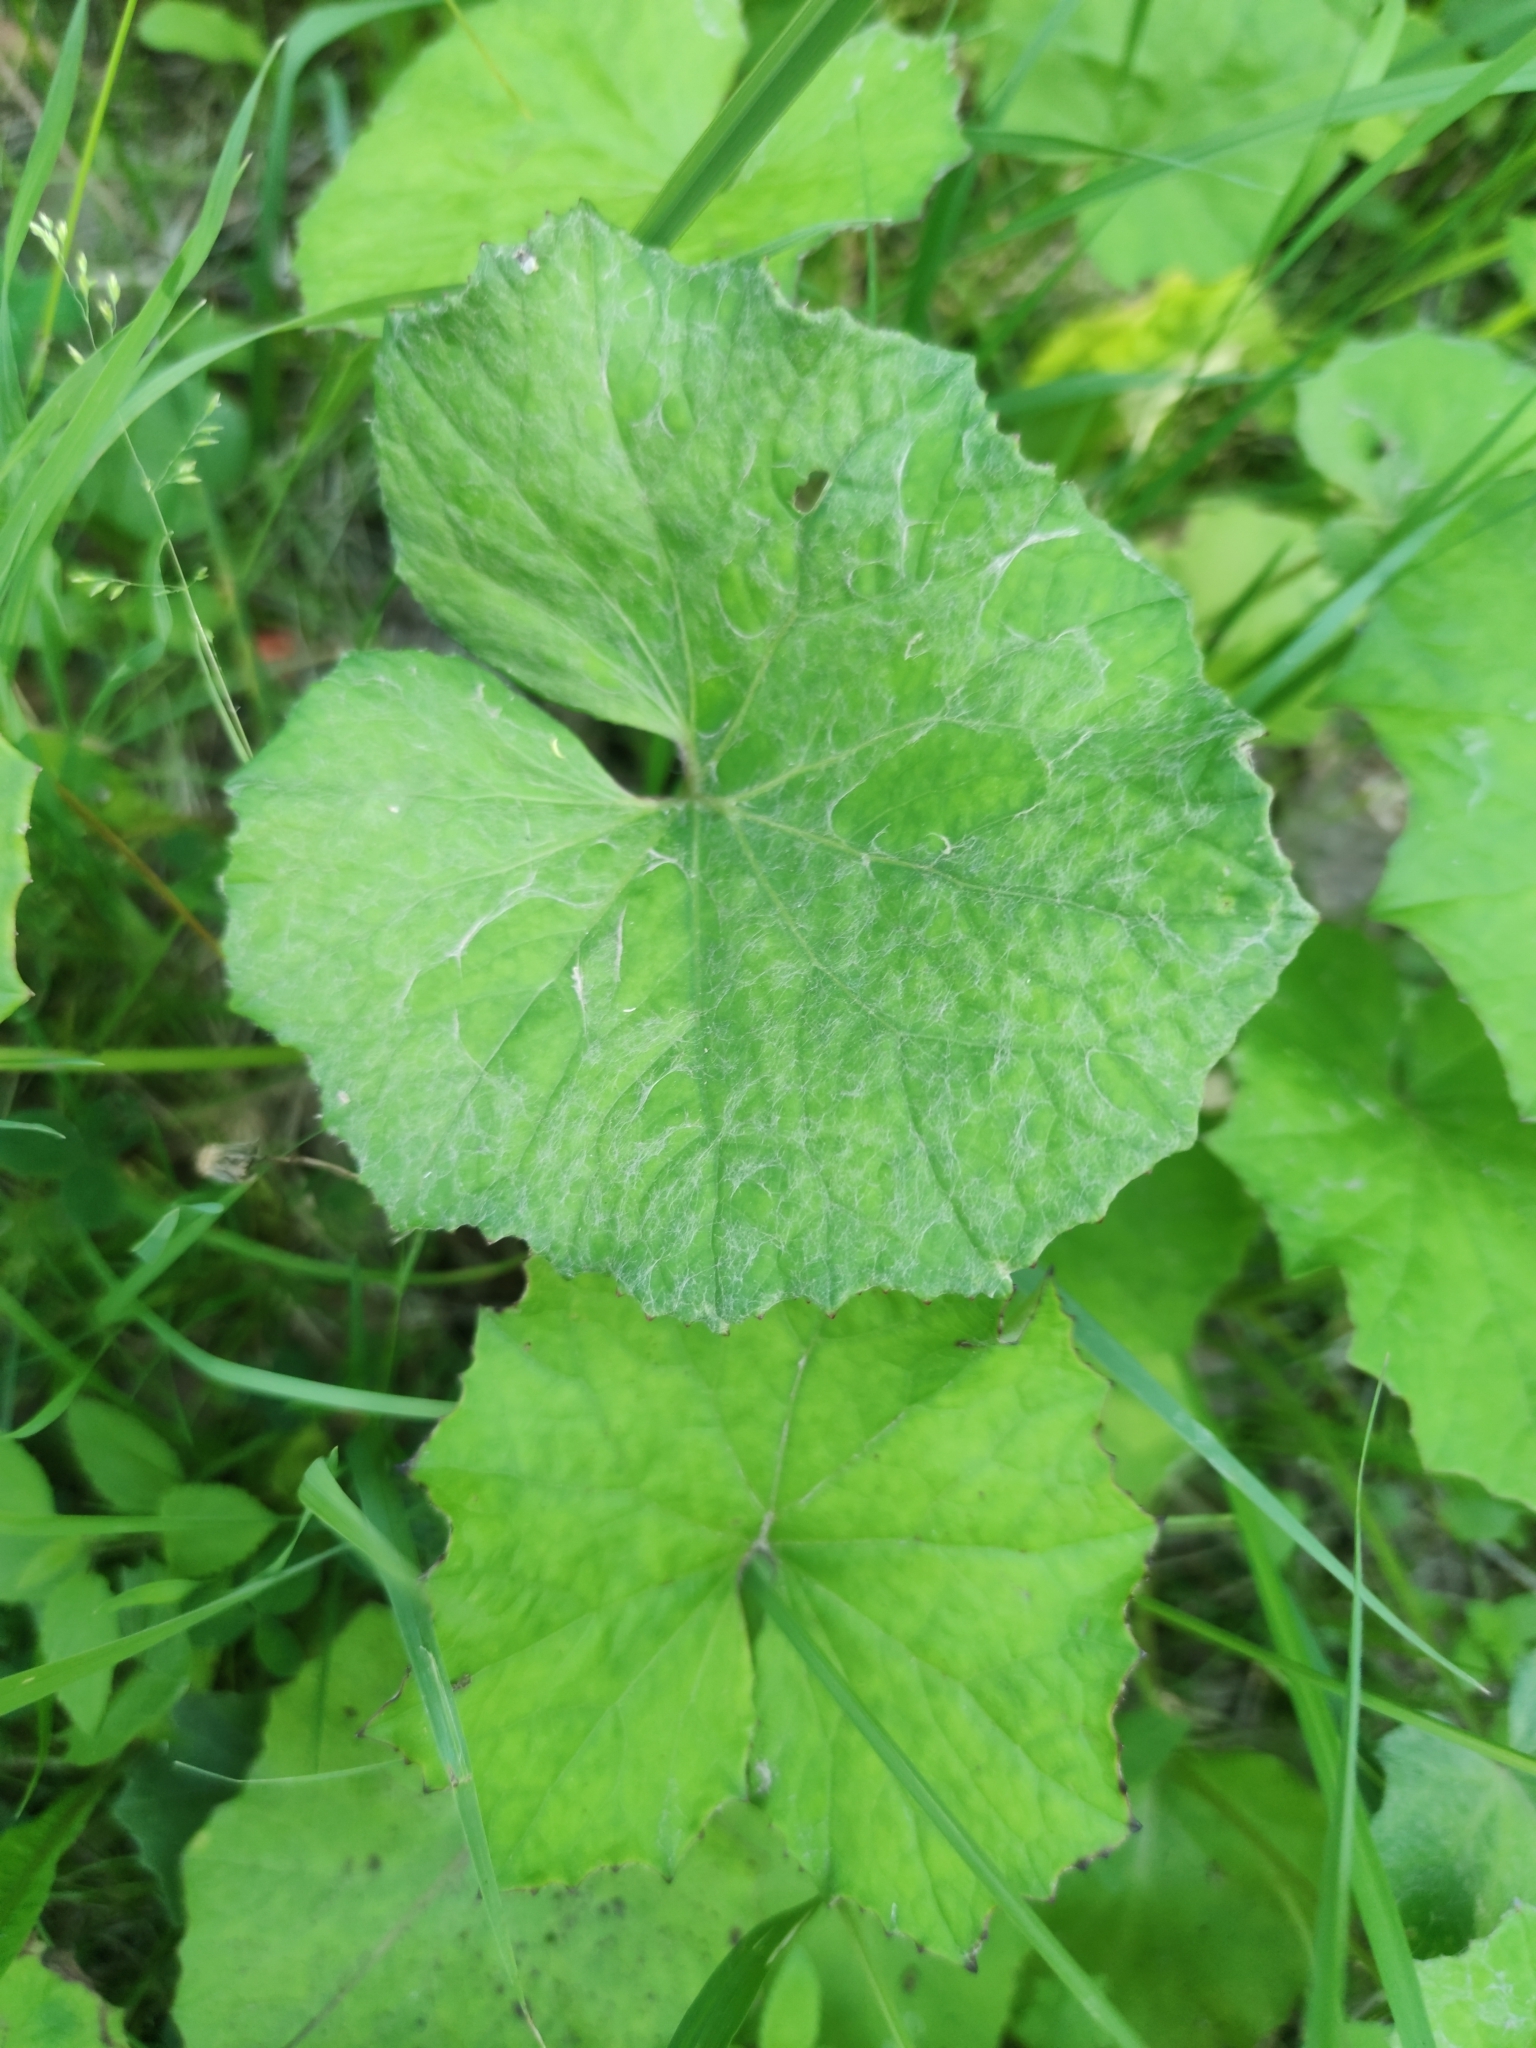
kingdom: Plantae
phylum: Tracheophyta
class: Magnoliopsida
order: Asterales
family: Asteraceae
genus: Tussilago
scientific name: Tussilago farfara
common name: Coltsfoot
